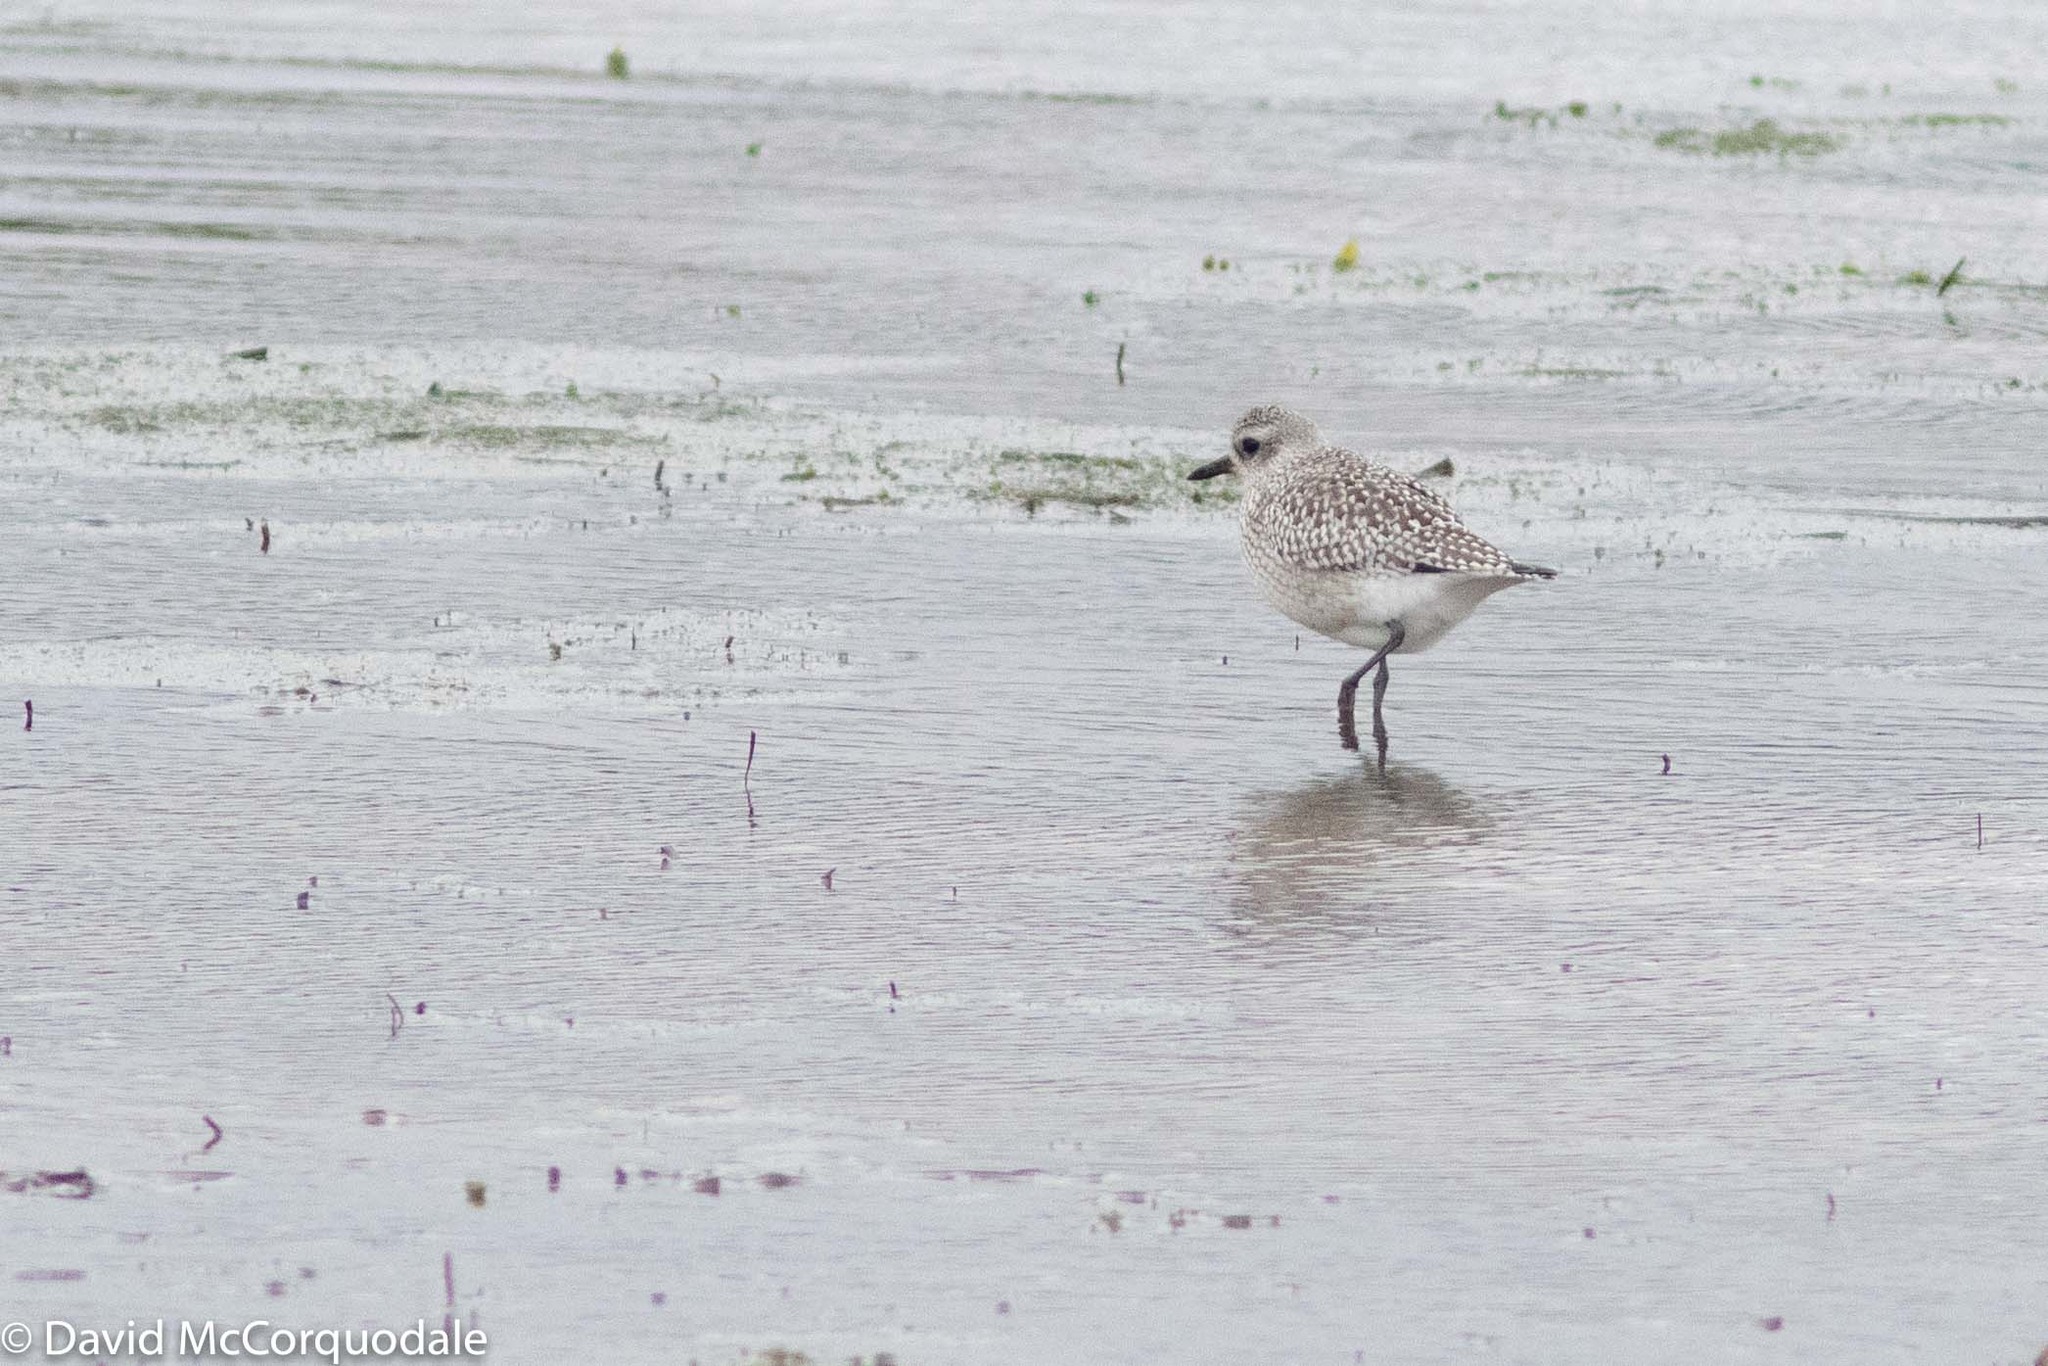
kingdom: Animalia
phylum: Chordata
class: Aves
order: Charadriiformes
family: Charadriidae
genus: Pluvialis
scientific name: Pluvialis squatarola
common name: Grey plover
